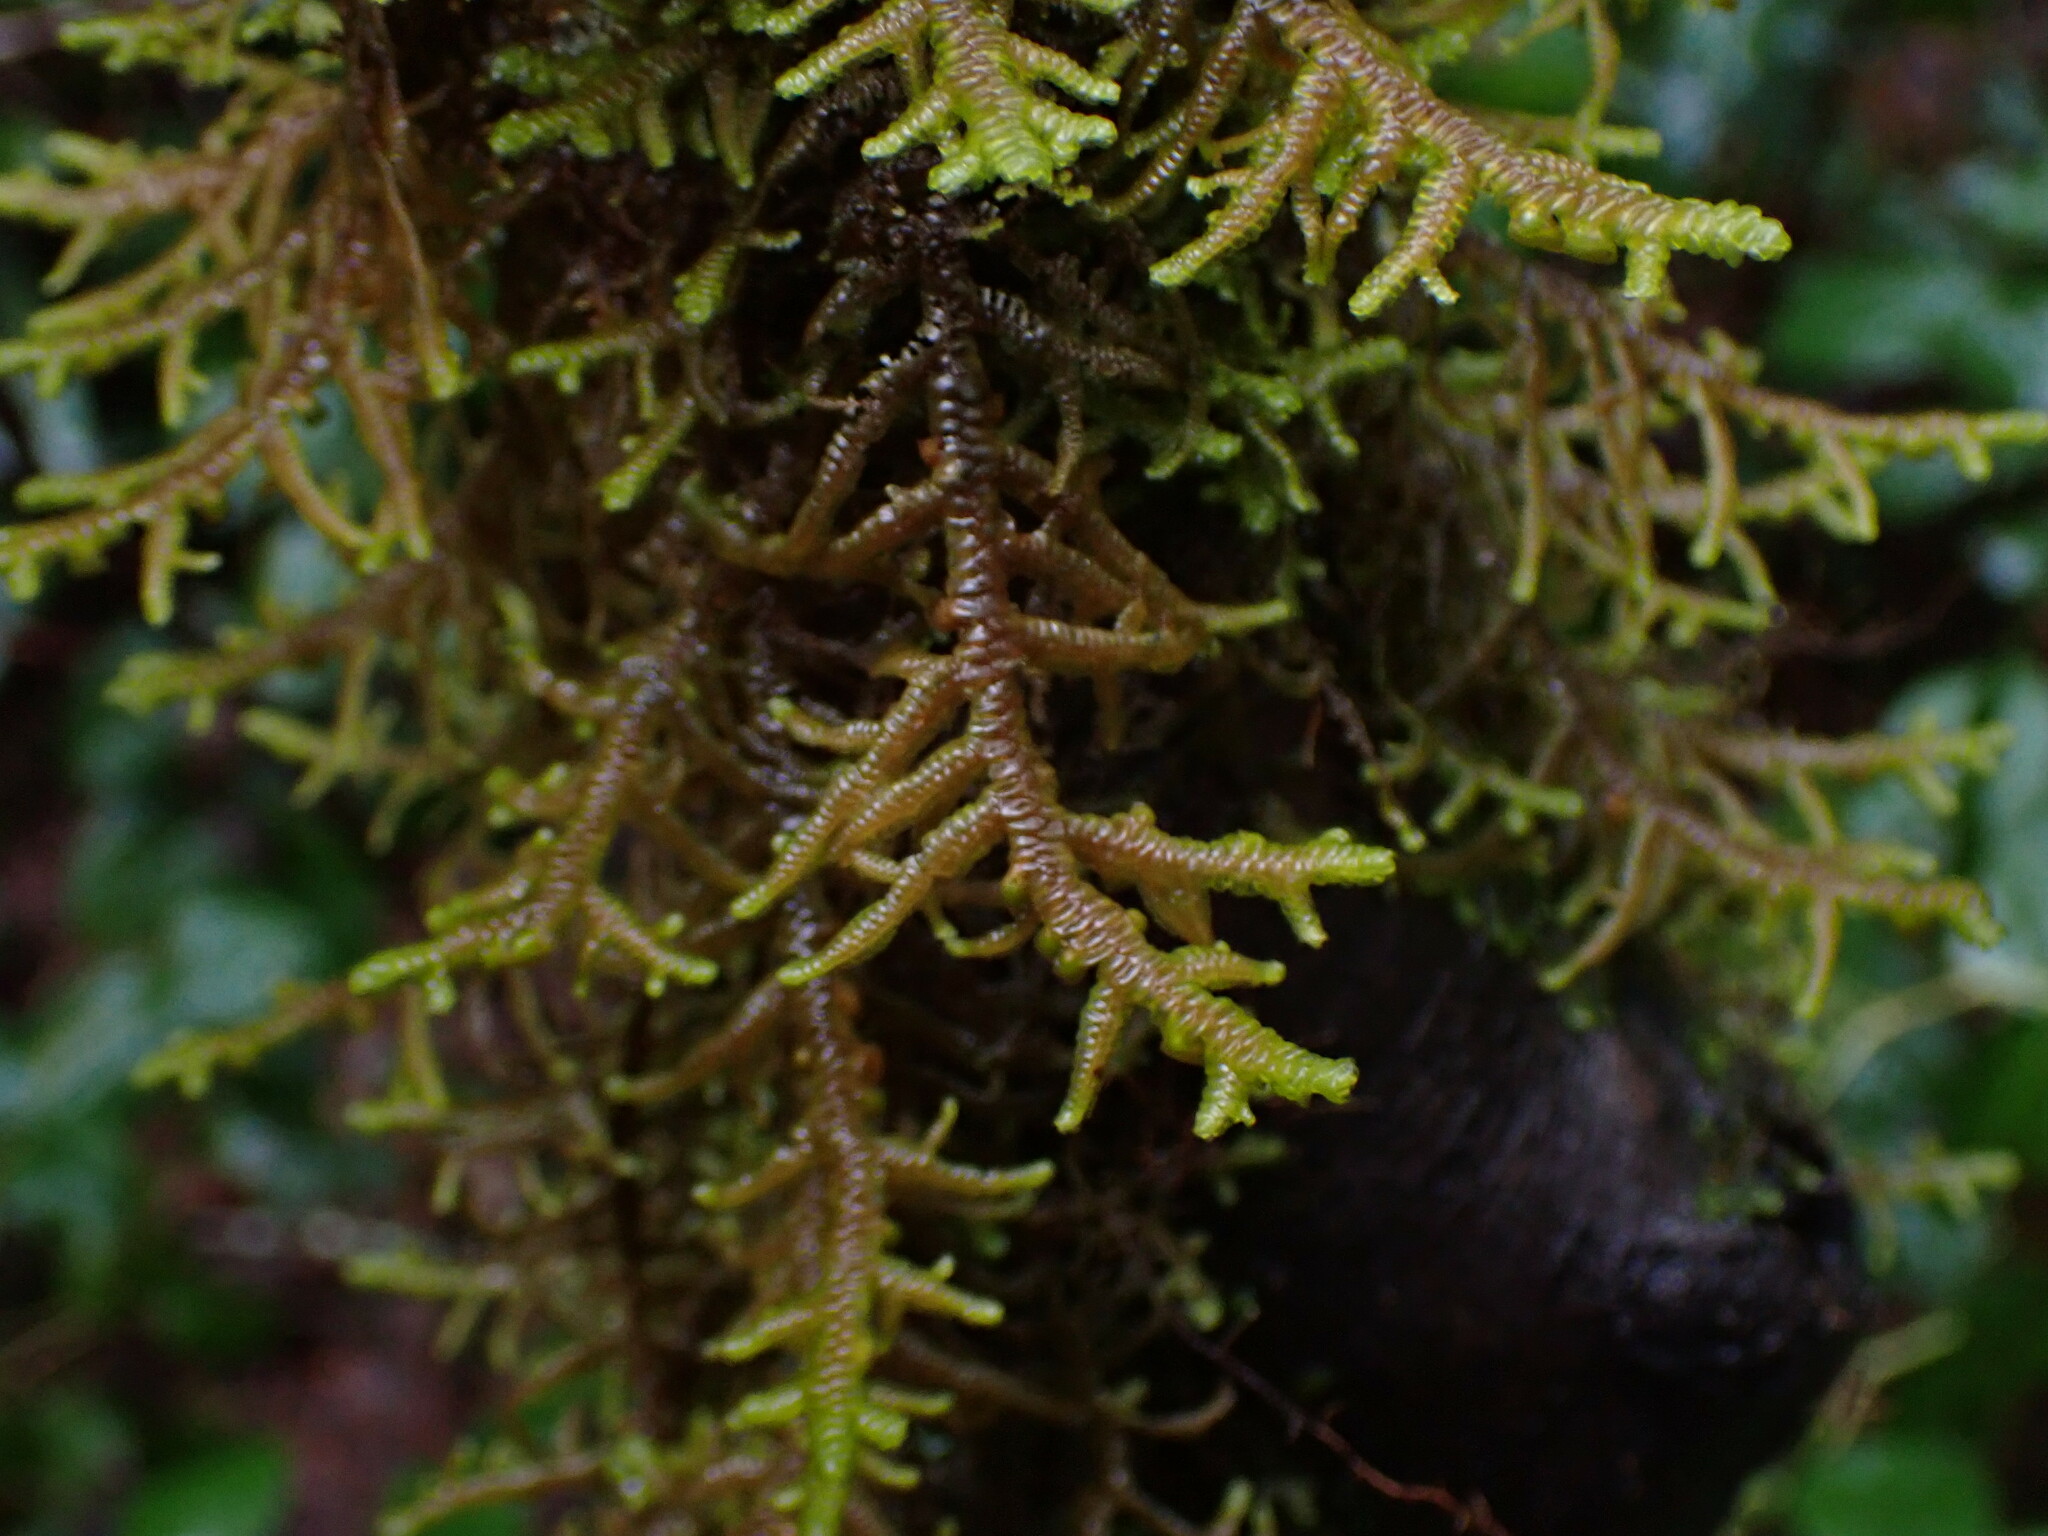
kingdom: Plantae
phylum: Marchantiophyta
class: Jungermanniopsida
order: Porellales
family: Porellaceae
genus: Porella
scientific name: Porella navicularis
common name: Tree ruffle liverwort
